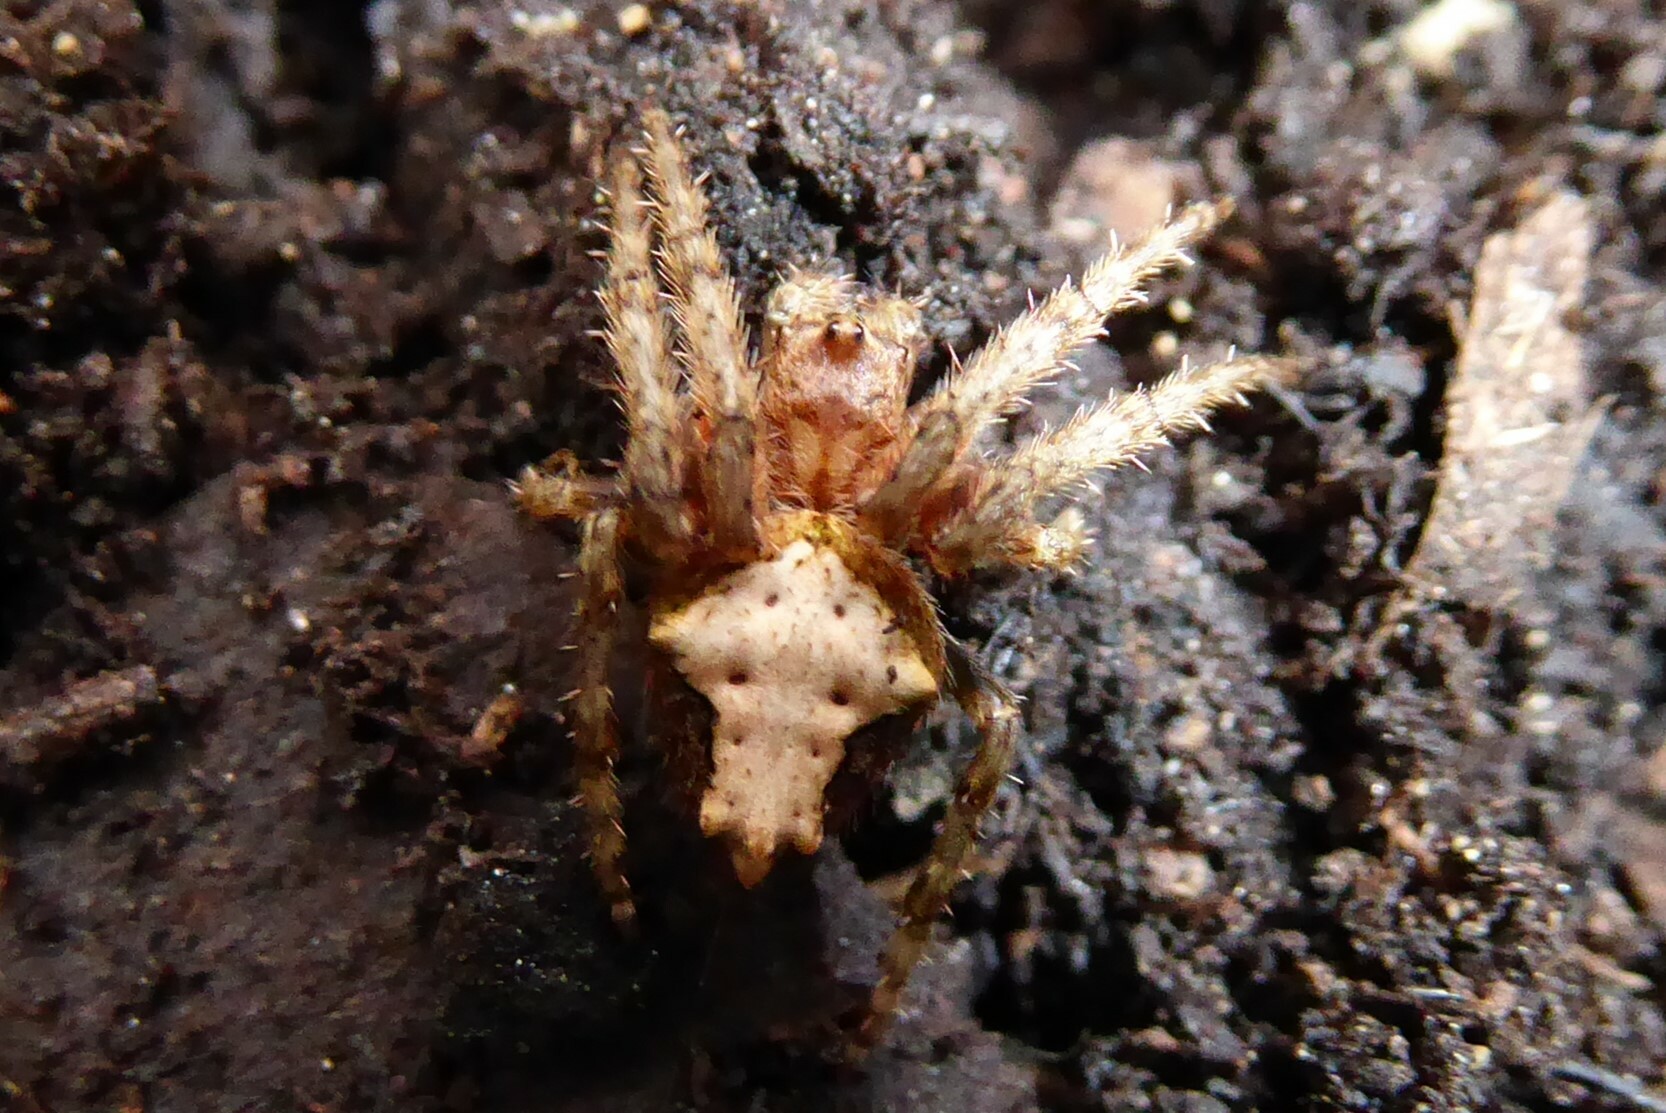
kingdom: Animalia
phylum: Arthropoda
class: Arachnida
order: Araneae
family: Araneidae
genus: Eriophora
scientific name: Eriophora pustulosa
